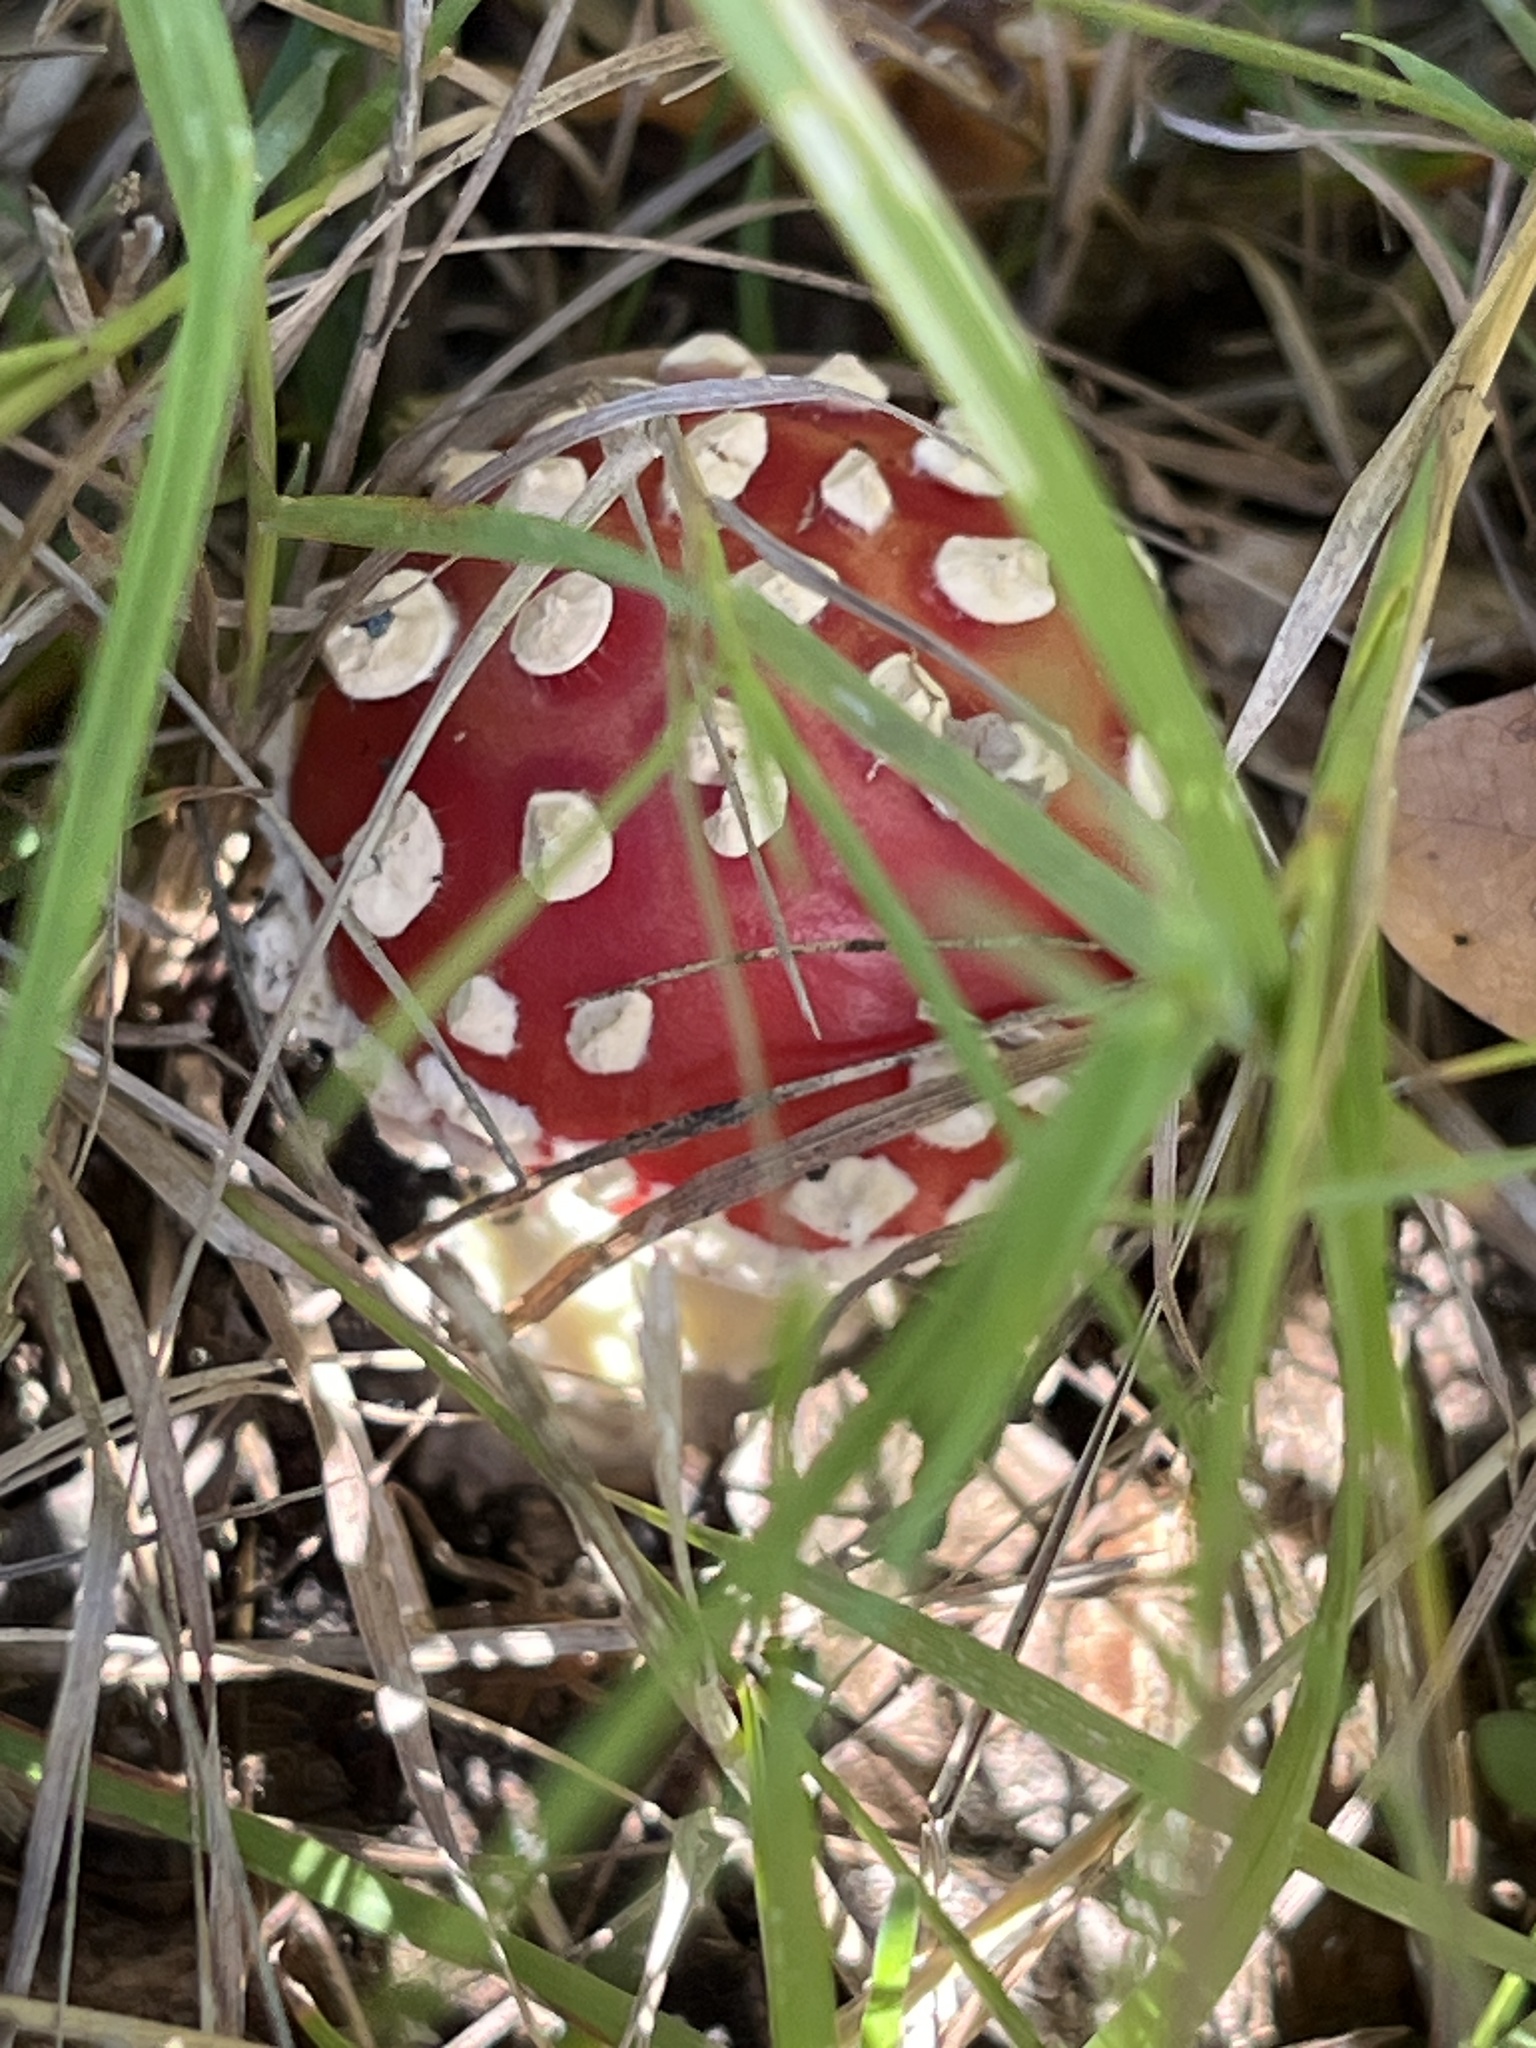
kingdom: Fungi
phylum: Basidiomycota
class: Agaricomycetes
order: Agaricales
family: Amanitaceae
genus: Amanita
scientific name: Amanita muscaria
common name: Fly agaric
